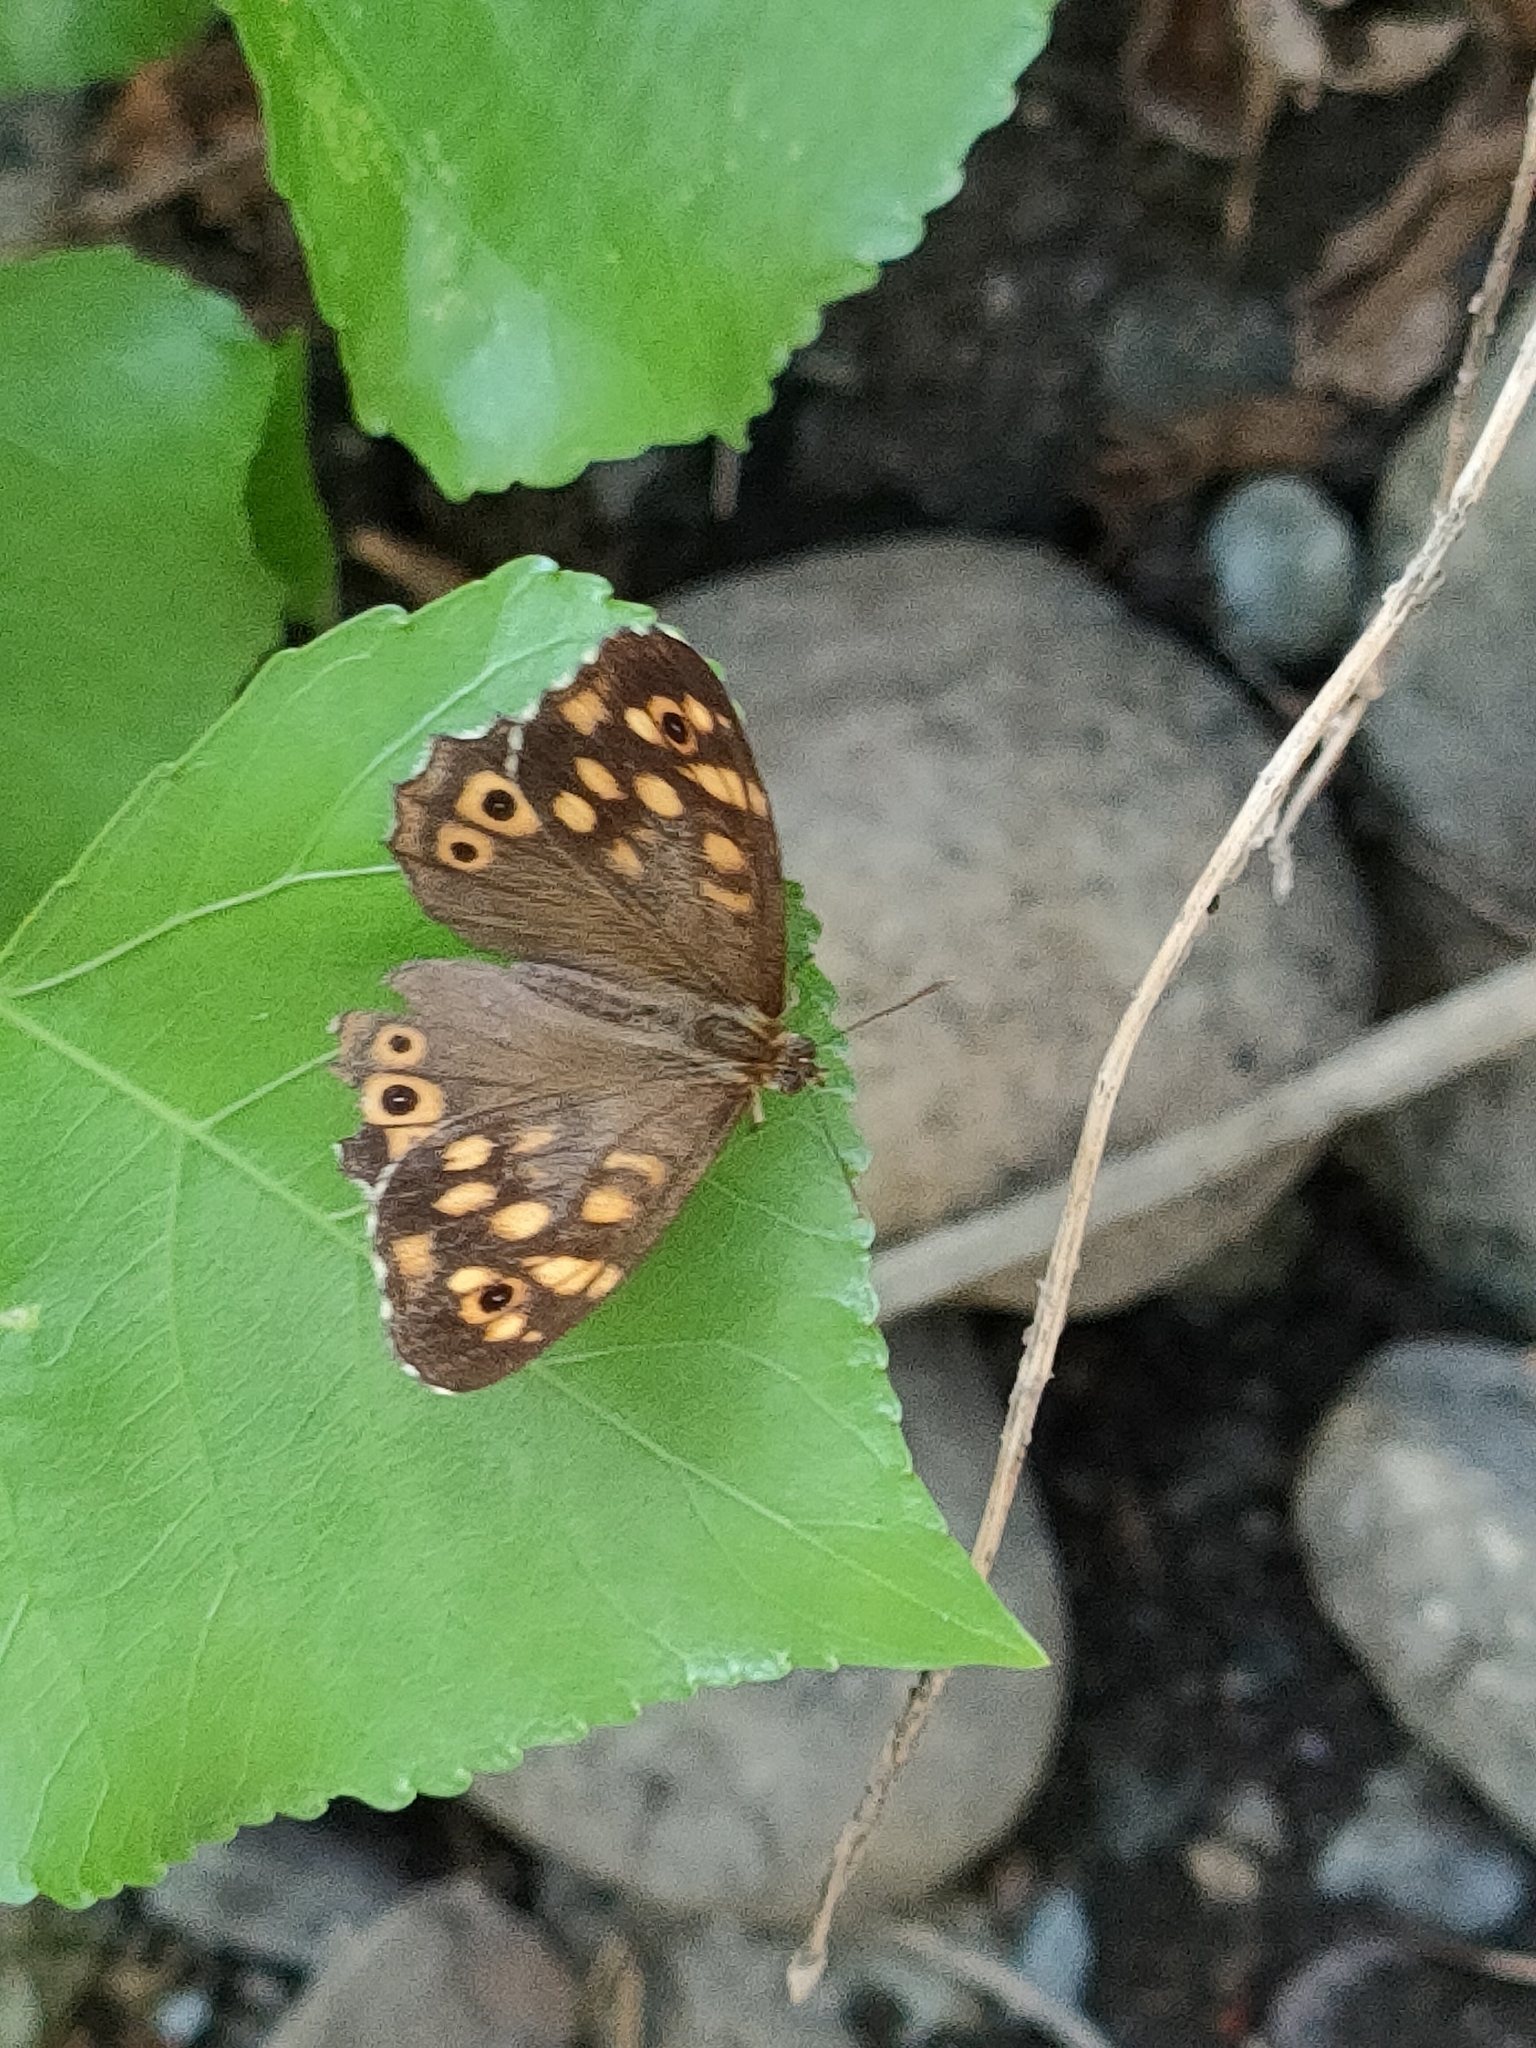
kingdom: Animalia
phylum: Arthropoda
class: Insecta
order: Lepidoptera
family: Nymphalidae
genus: Pararge
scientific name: Pararge aegeria
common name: Speckled wood
